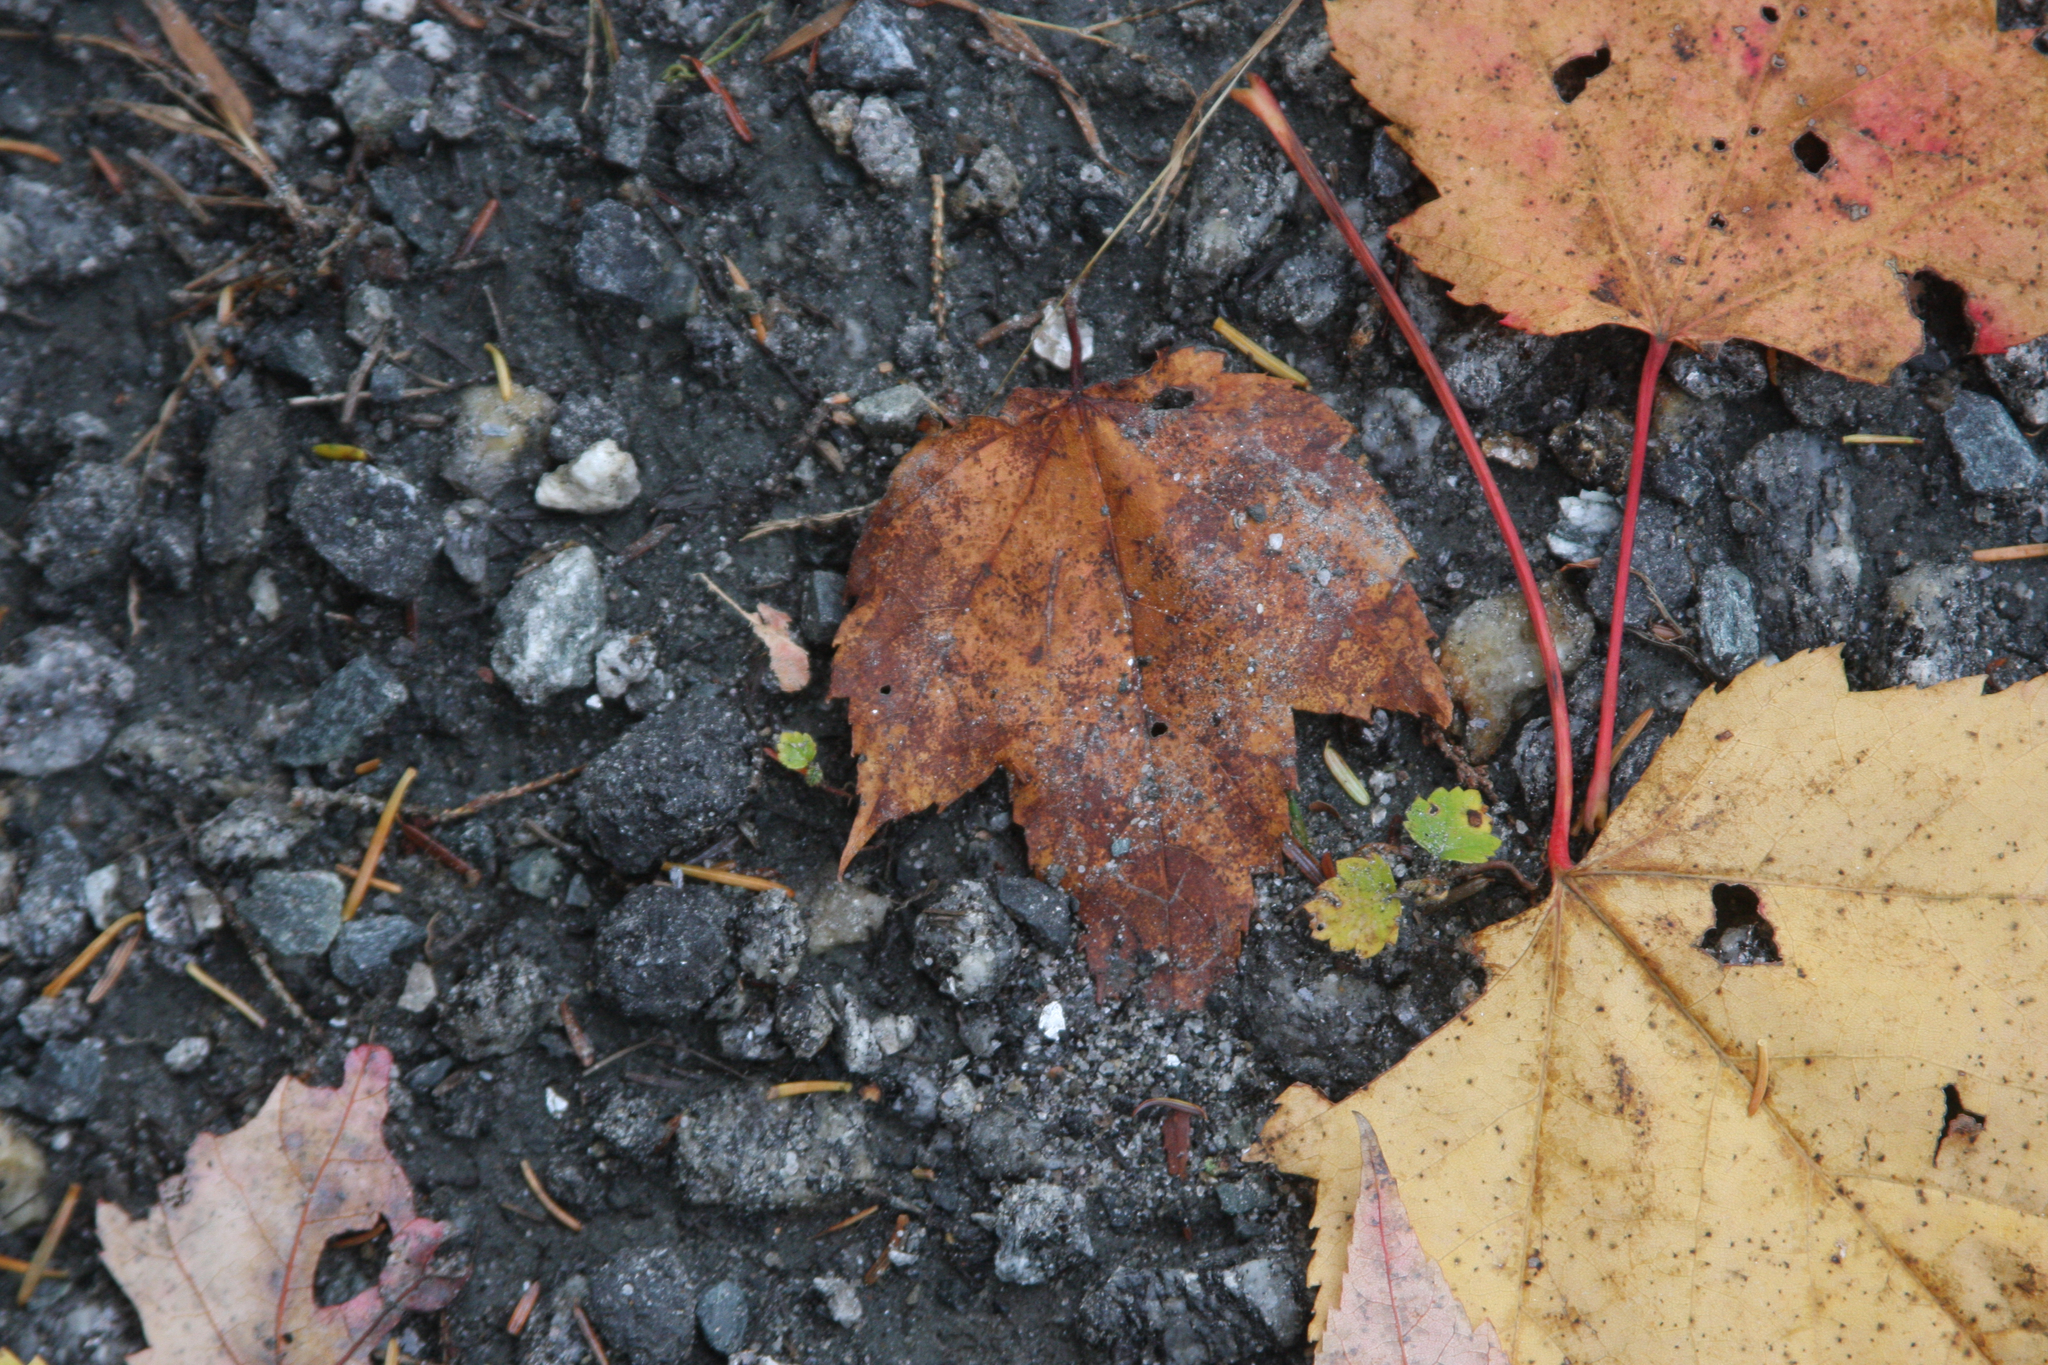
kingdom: Plantae
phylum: Tracheophyta
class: Magnoliopsida
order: Sapindales
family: Sapindaceae
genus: Acer
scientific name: Acer rubrum
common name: Red maple
